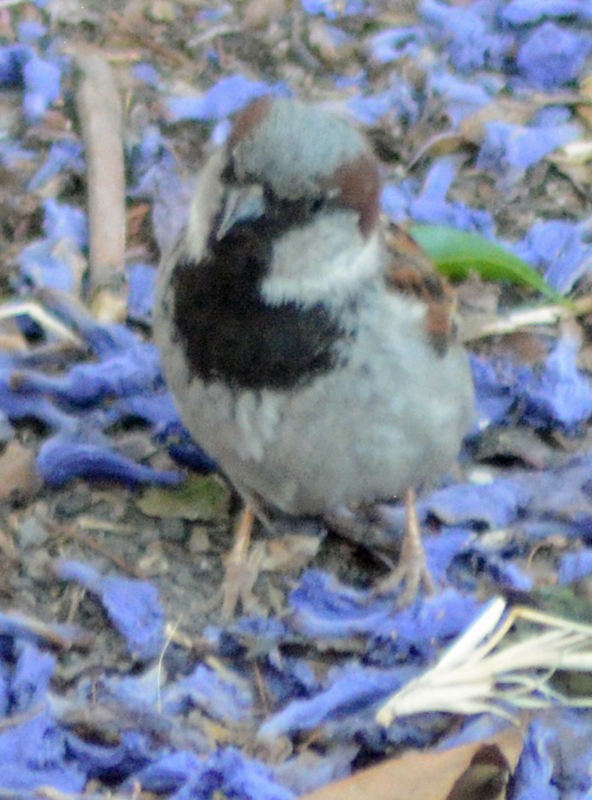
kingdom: Animalia
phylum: Chordata
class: Aves
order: Passeriformes
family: Passeridae
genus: Passer
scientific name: Passer domesticus
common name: House sparrow
